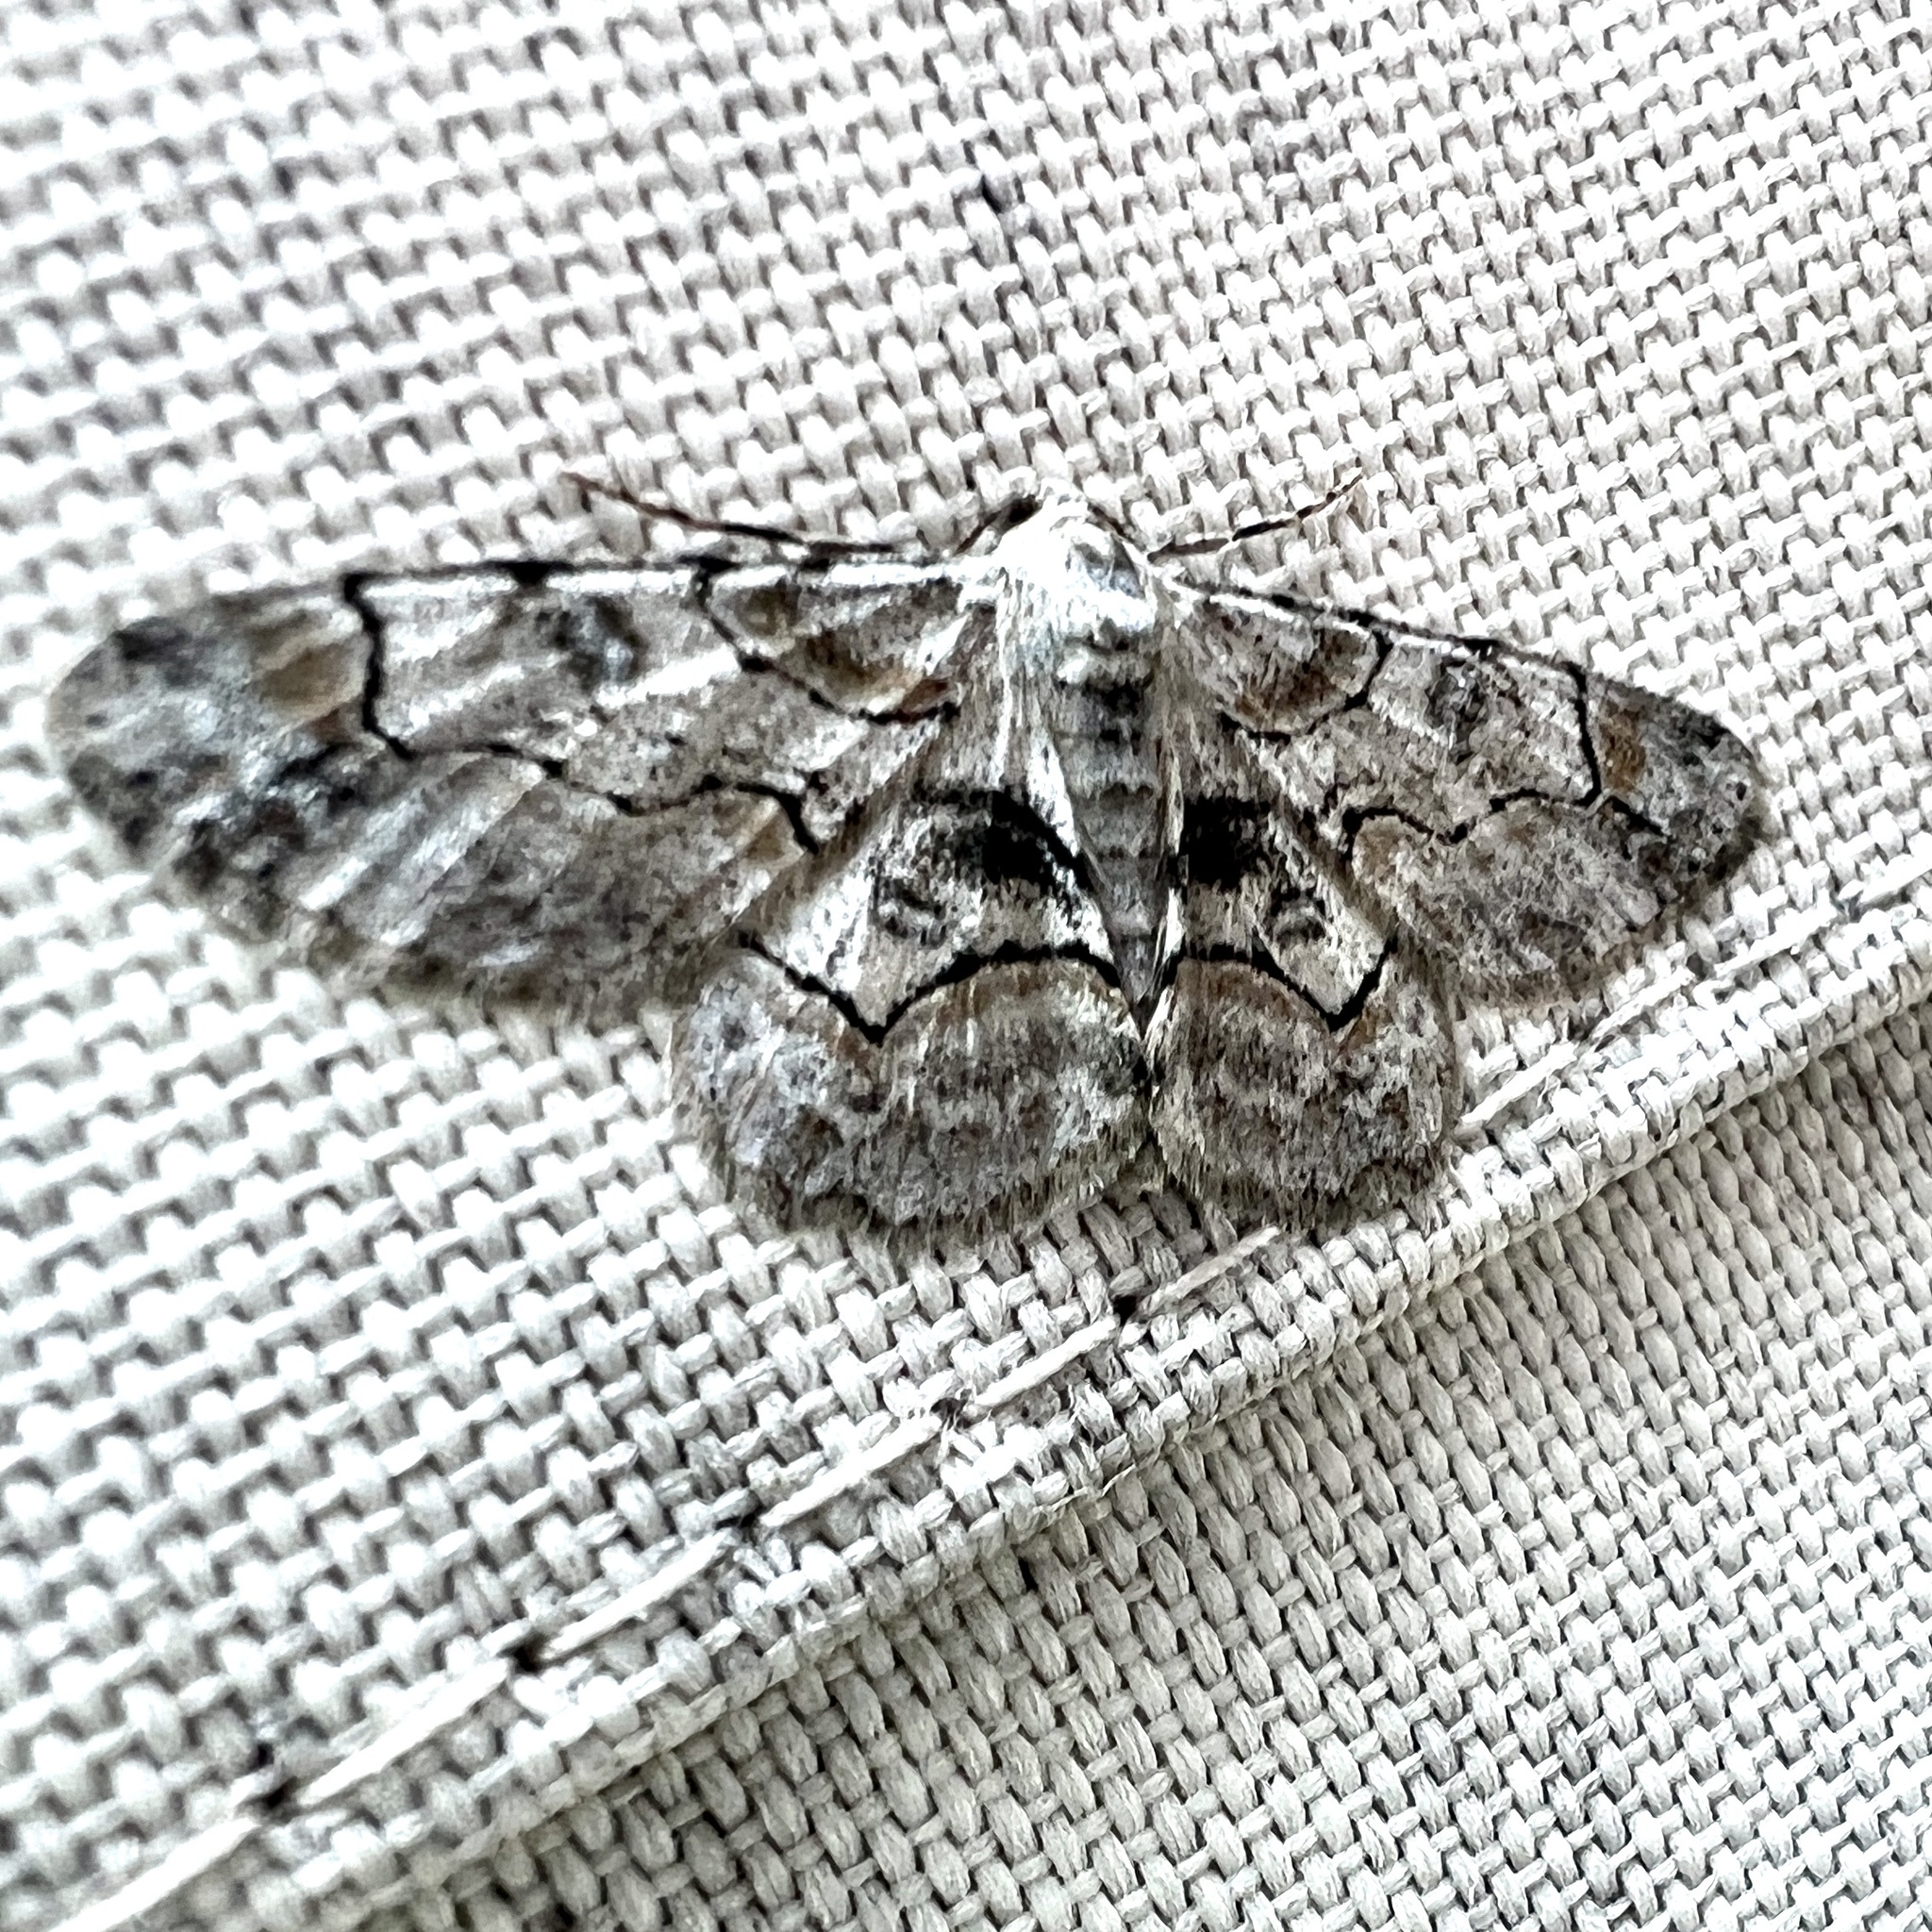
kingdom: Animalia
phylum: Arthropoda
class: Insecta
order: Lepidoptera
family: Geometridae
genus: Iridopsis
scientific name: Iridopsis larvaria
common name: Bent-line gray
